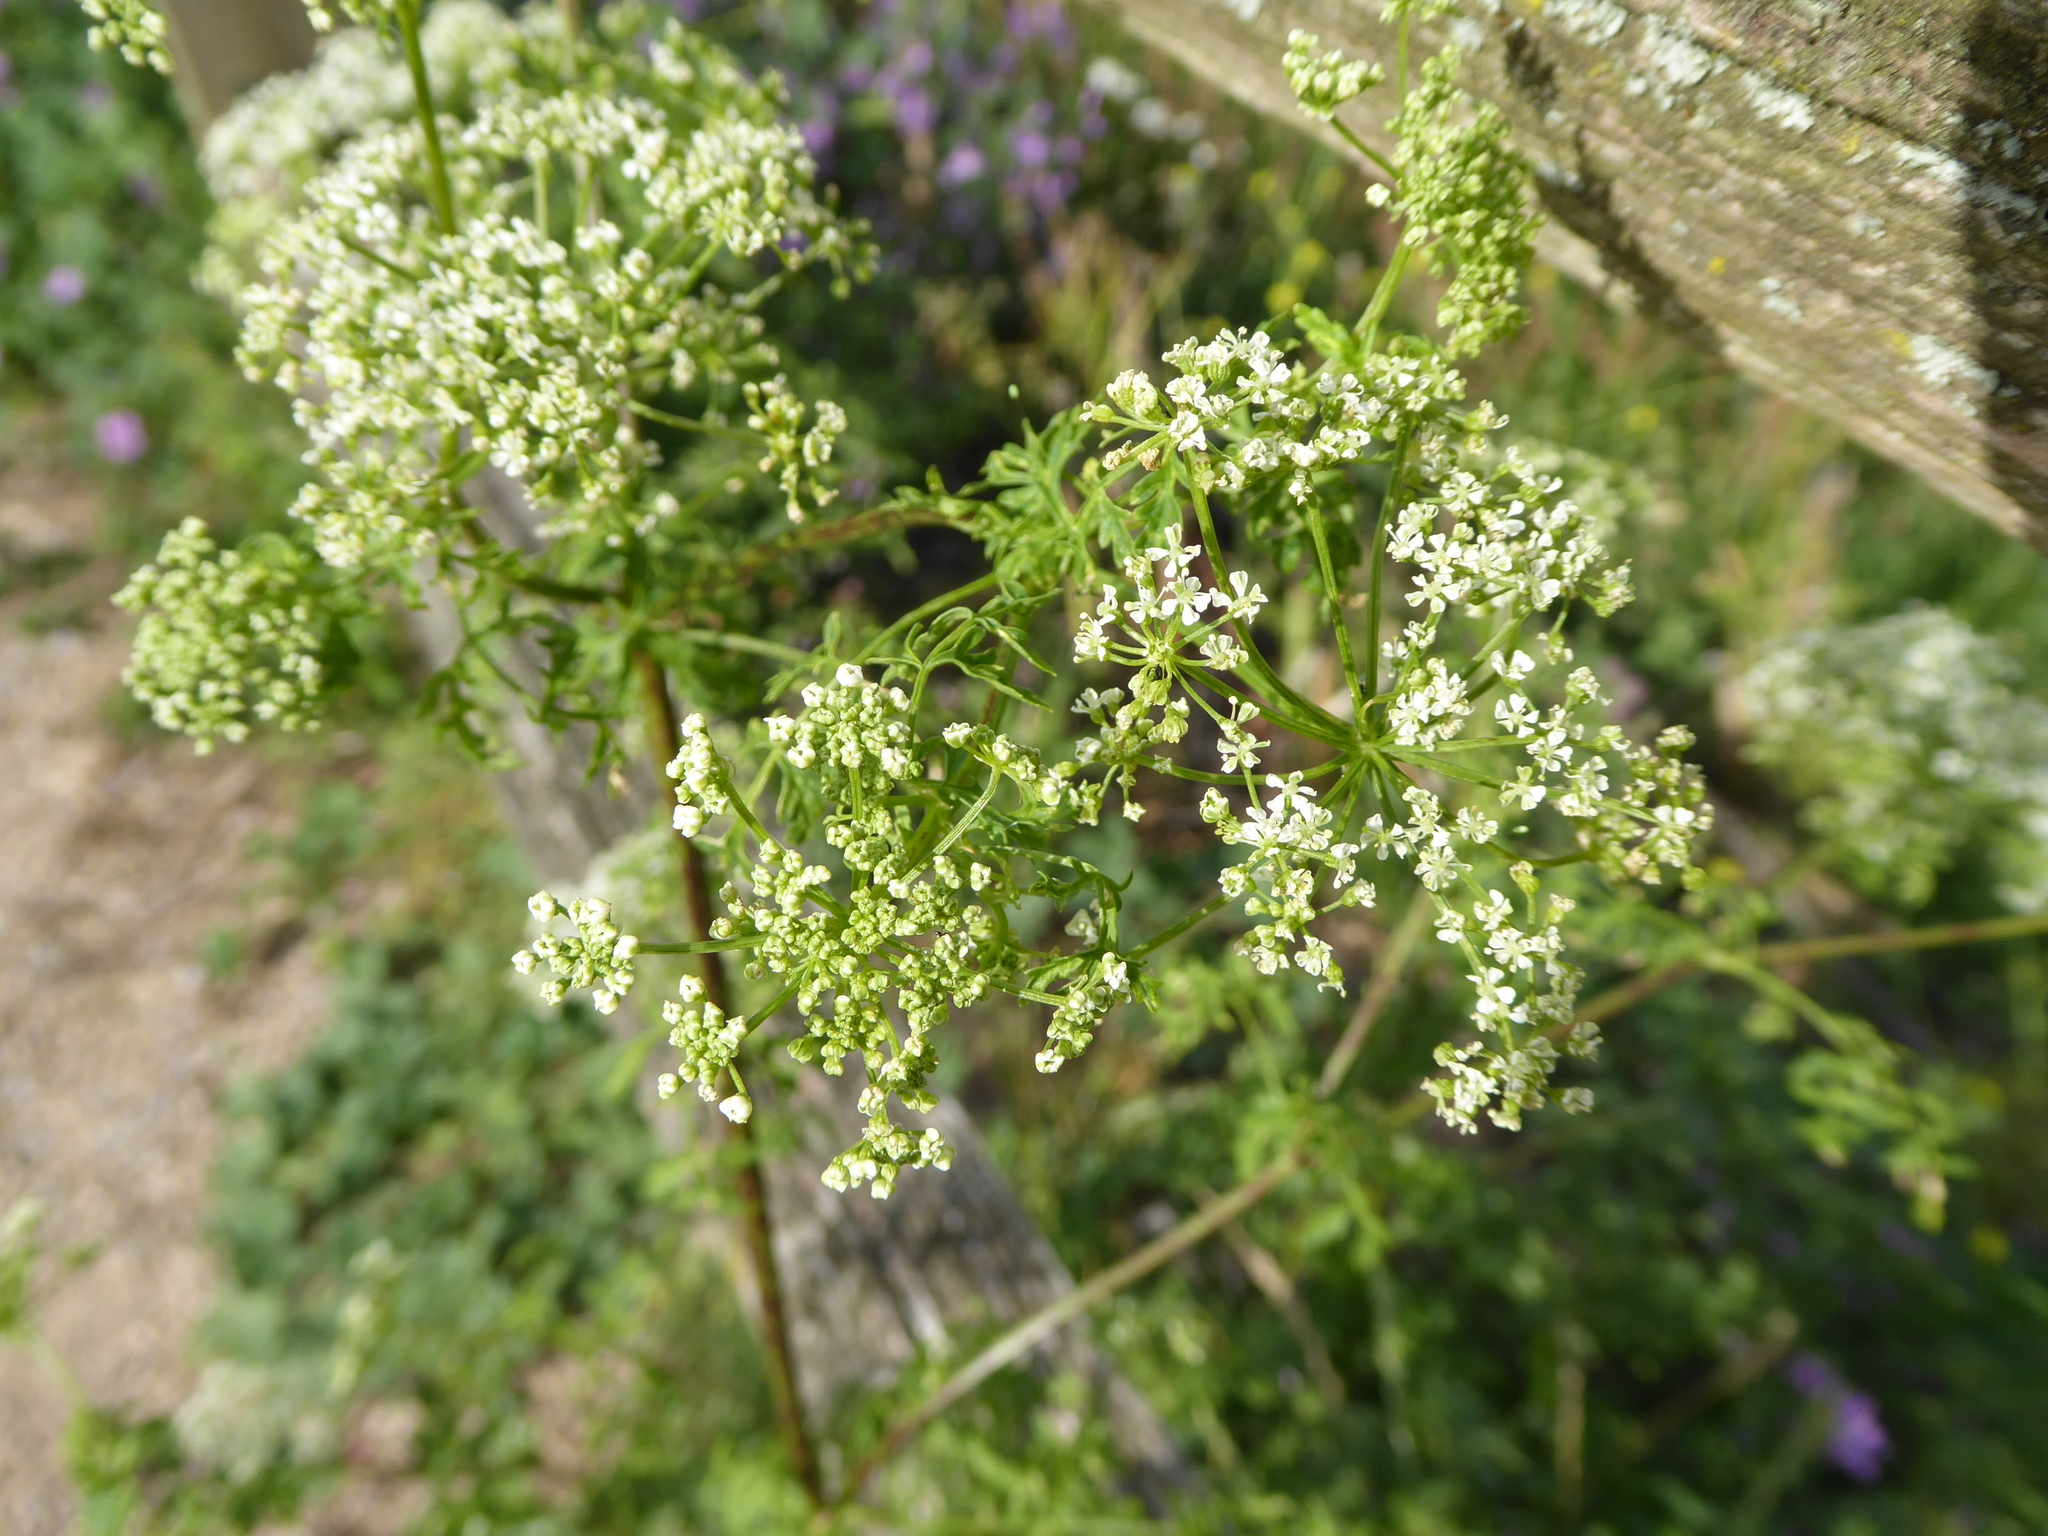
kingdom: Plantae
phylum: Tracheophyta
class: Magnoliopsida
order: Apiales
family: Apiaceae
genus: Conium
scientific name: Conium maculatum
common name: Hemlock
